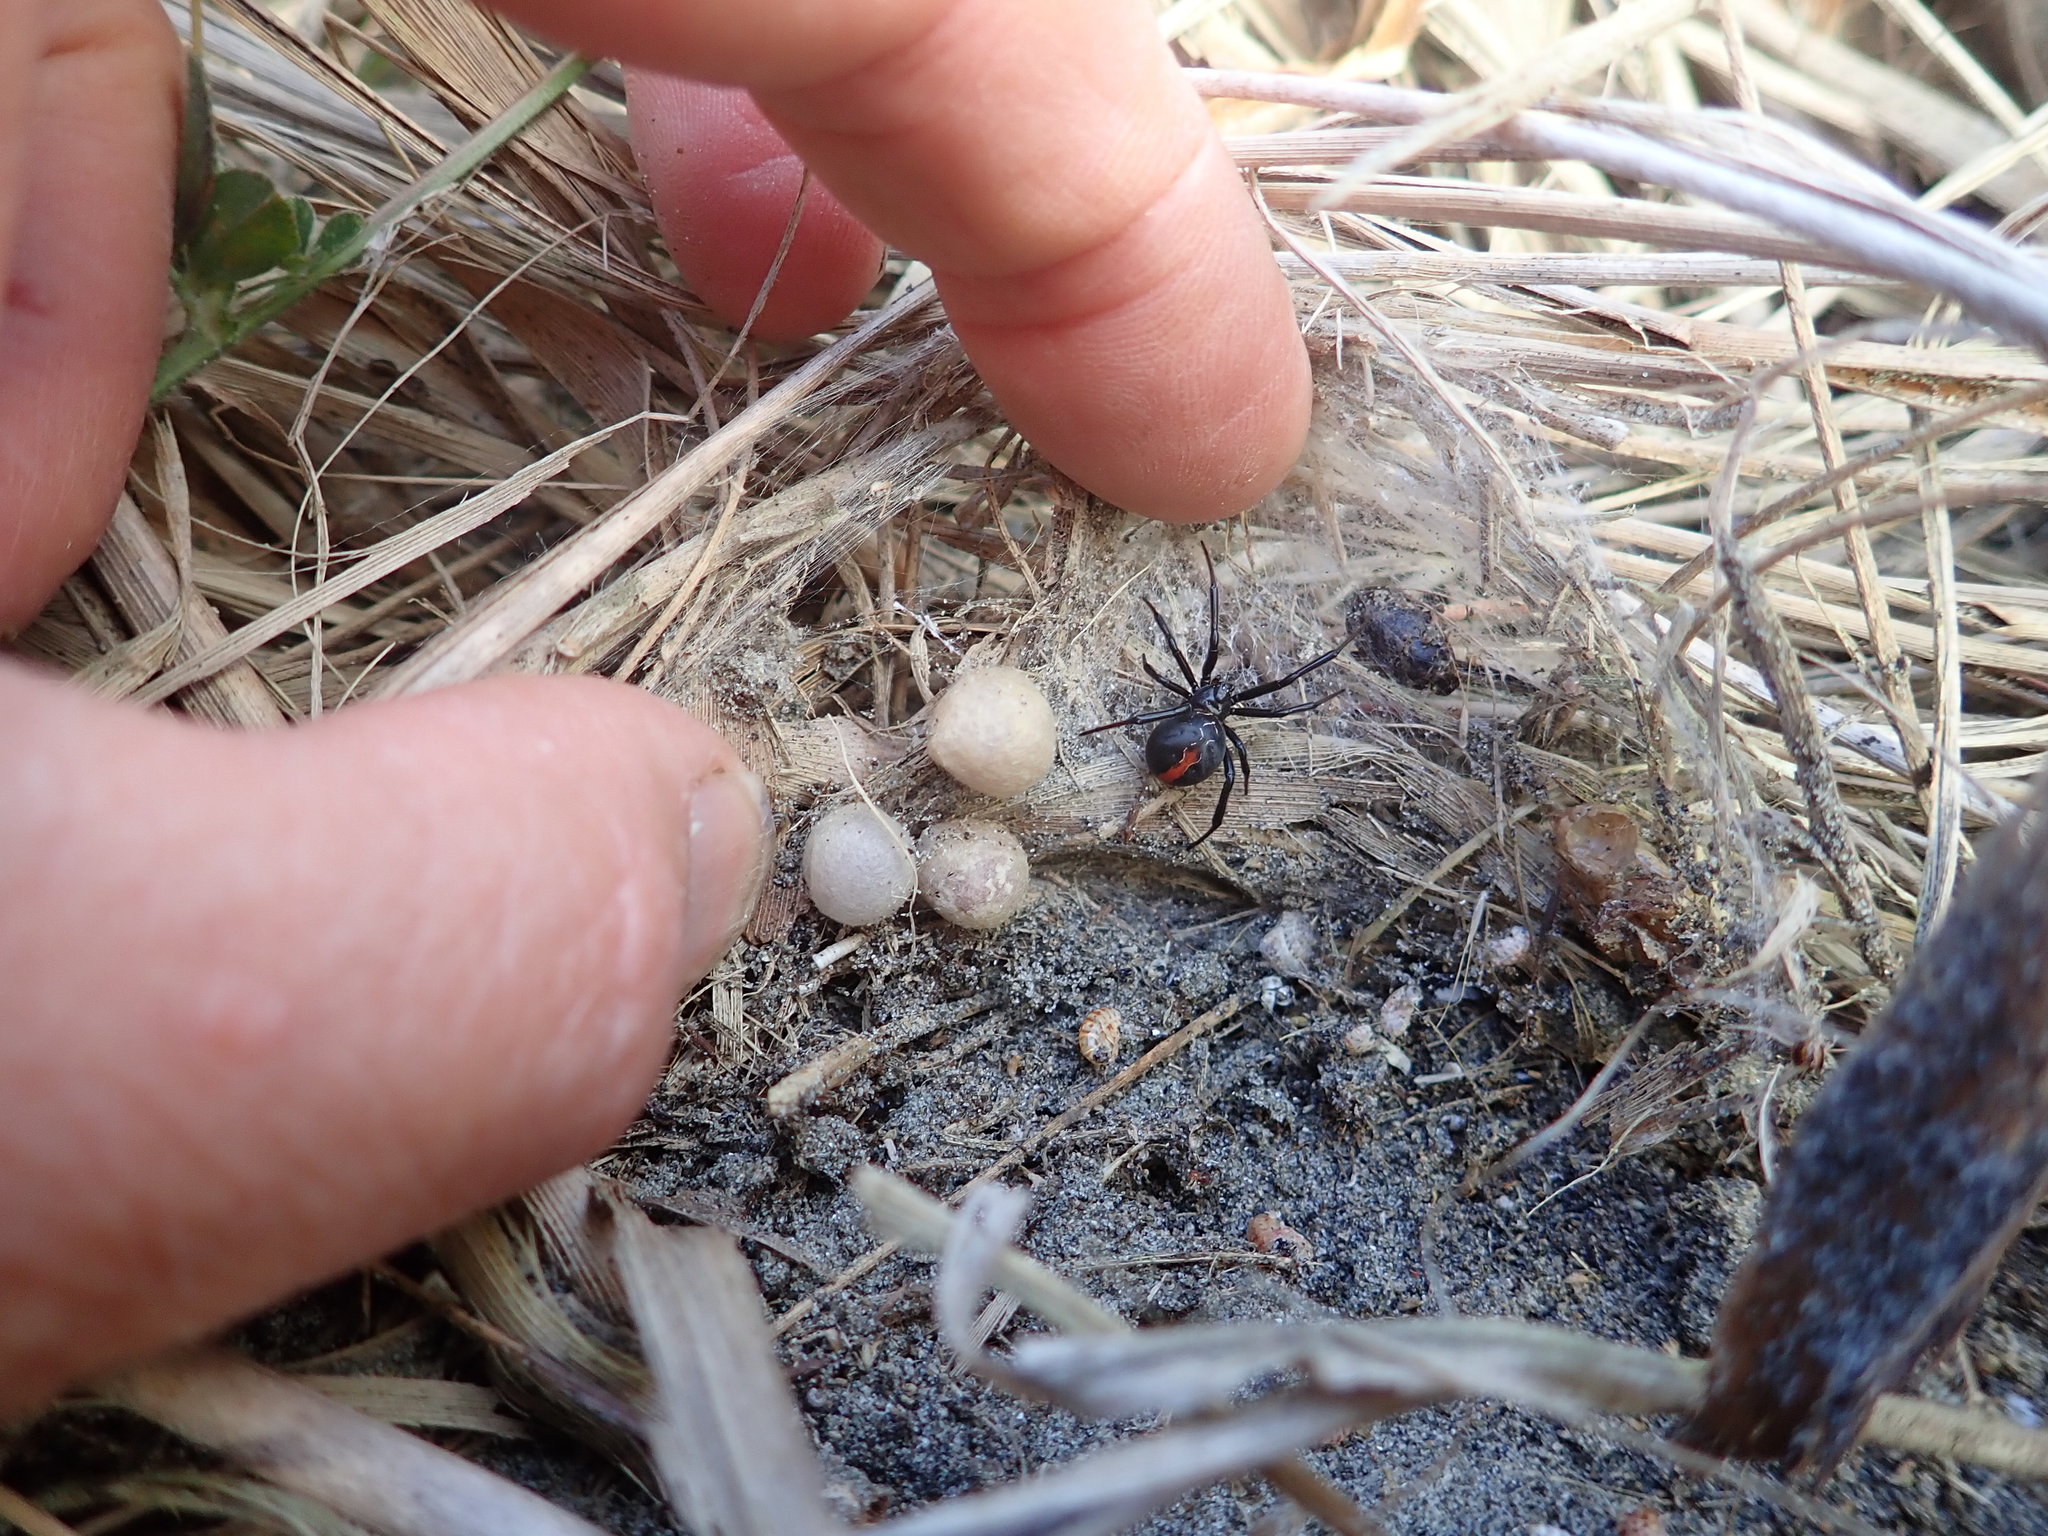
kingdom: Animalia
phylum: Arthropoda
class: Arachnida
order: Araneae
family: Theridiidae
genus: Latrodectus
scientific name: Latrodectus katipo
